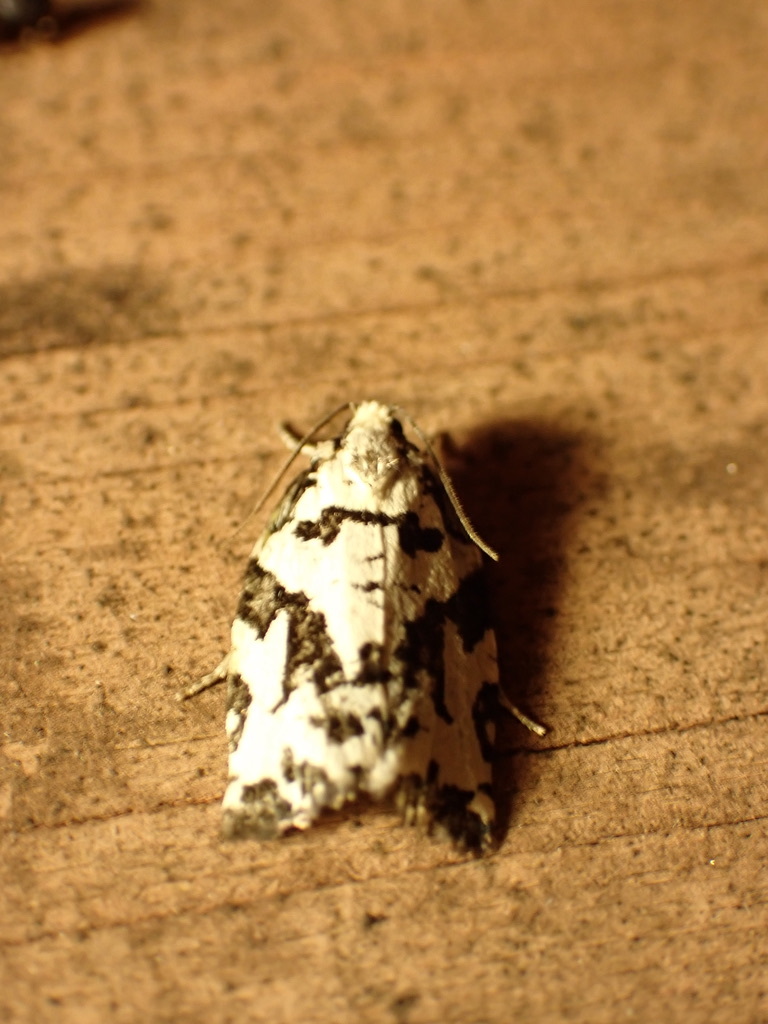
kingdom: Animalia
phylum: Arthropoda
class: Insecta
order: Lepidoptera
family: Tortricidae
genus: Archips
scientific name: Archips dissitana
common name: Boldly-marked archips moth
